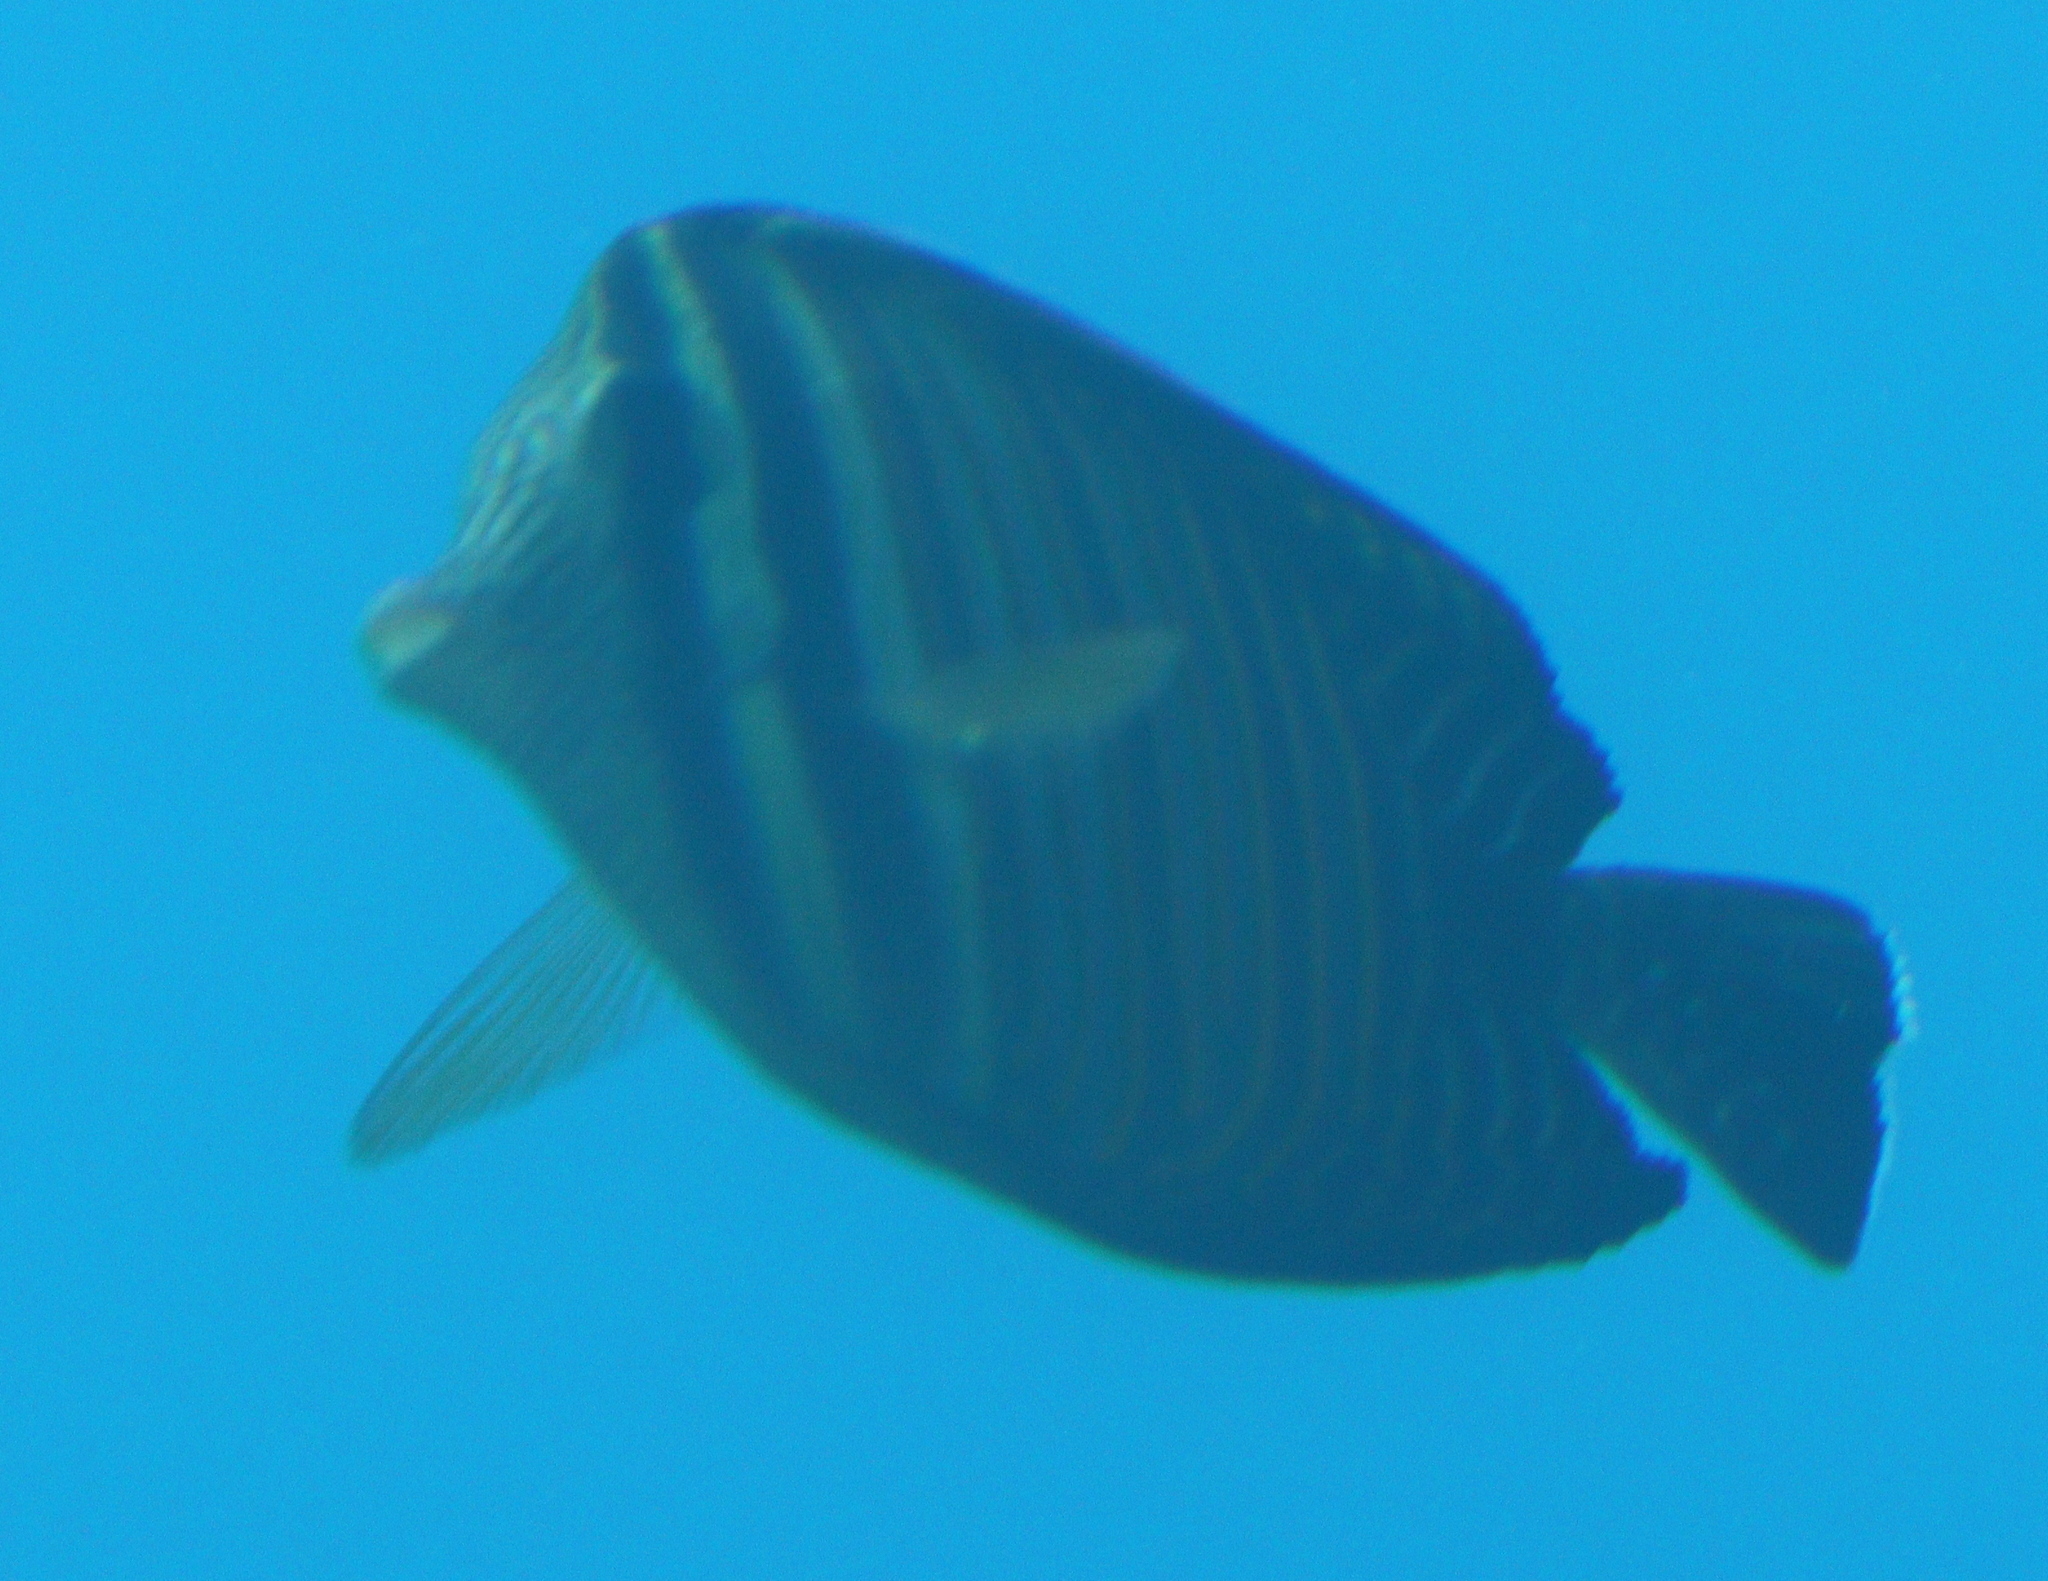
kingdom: Animalia
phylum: Chordata
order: Perciformes
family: Acanthuridae
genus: Zebrasoma
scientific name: Zebrasoma desjardinii
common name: Desjardin's sailfin tang
